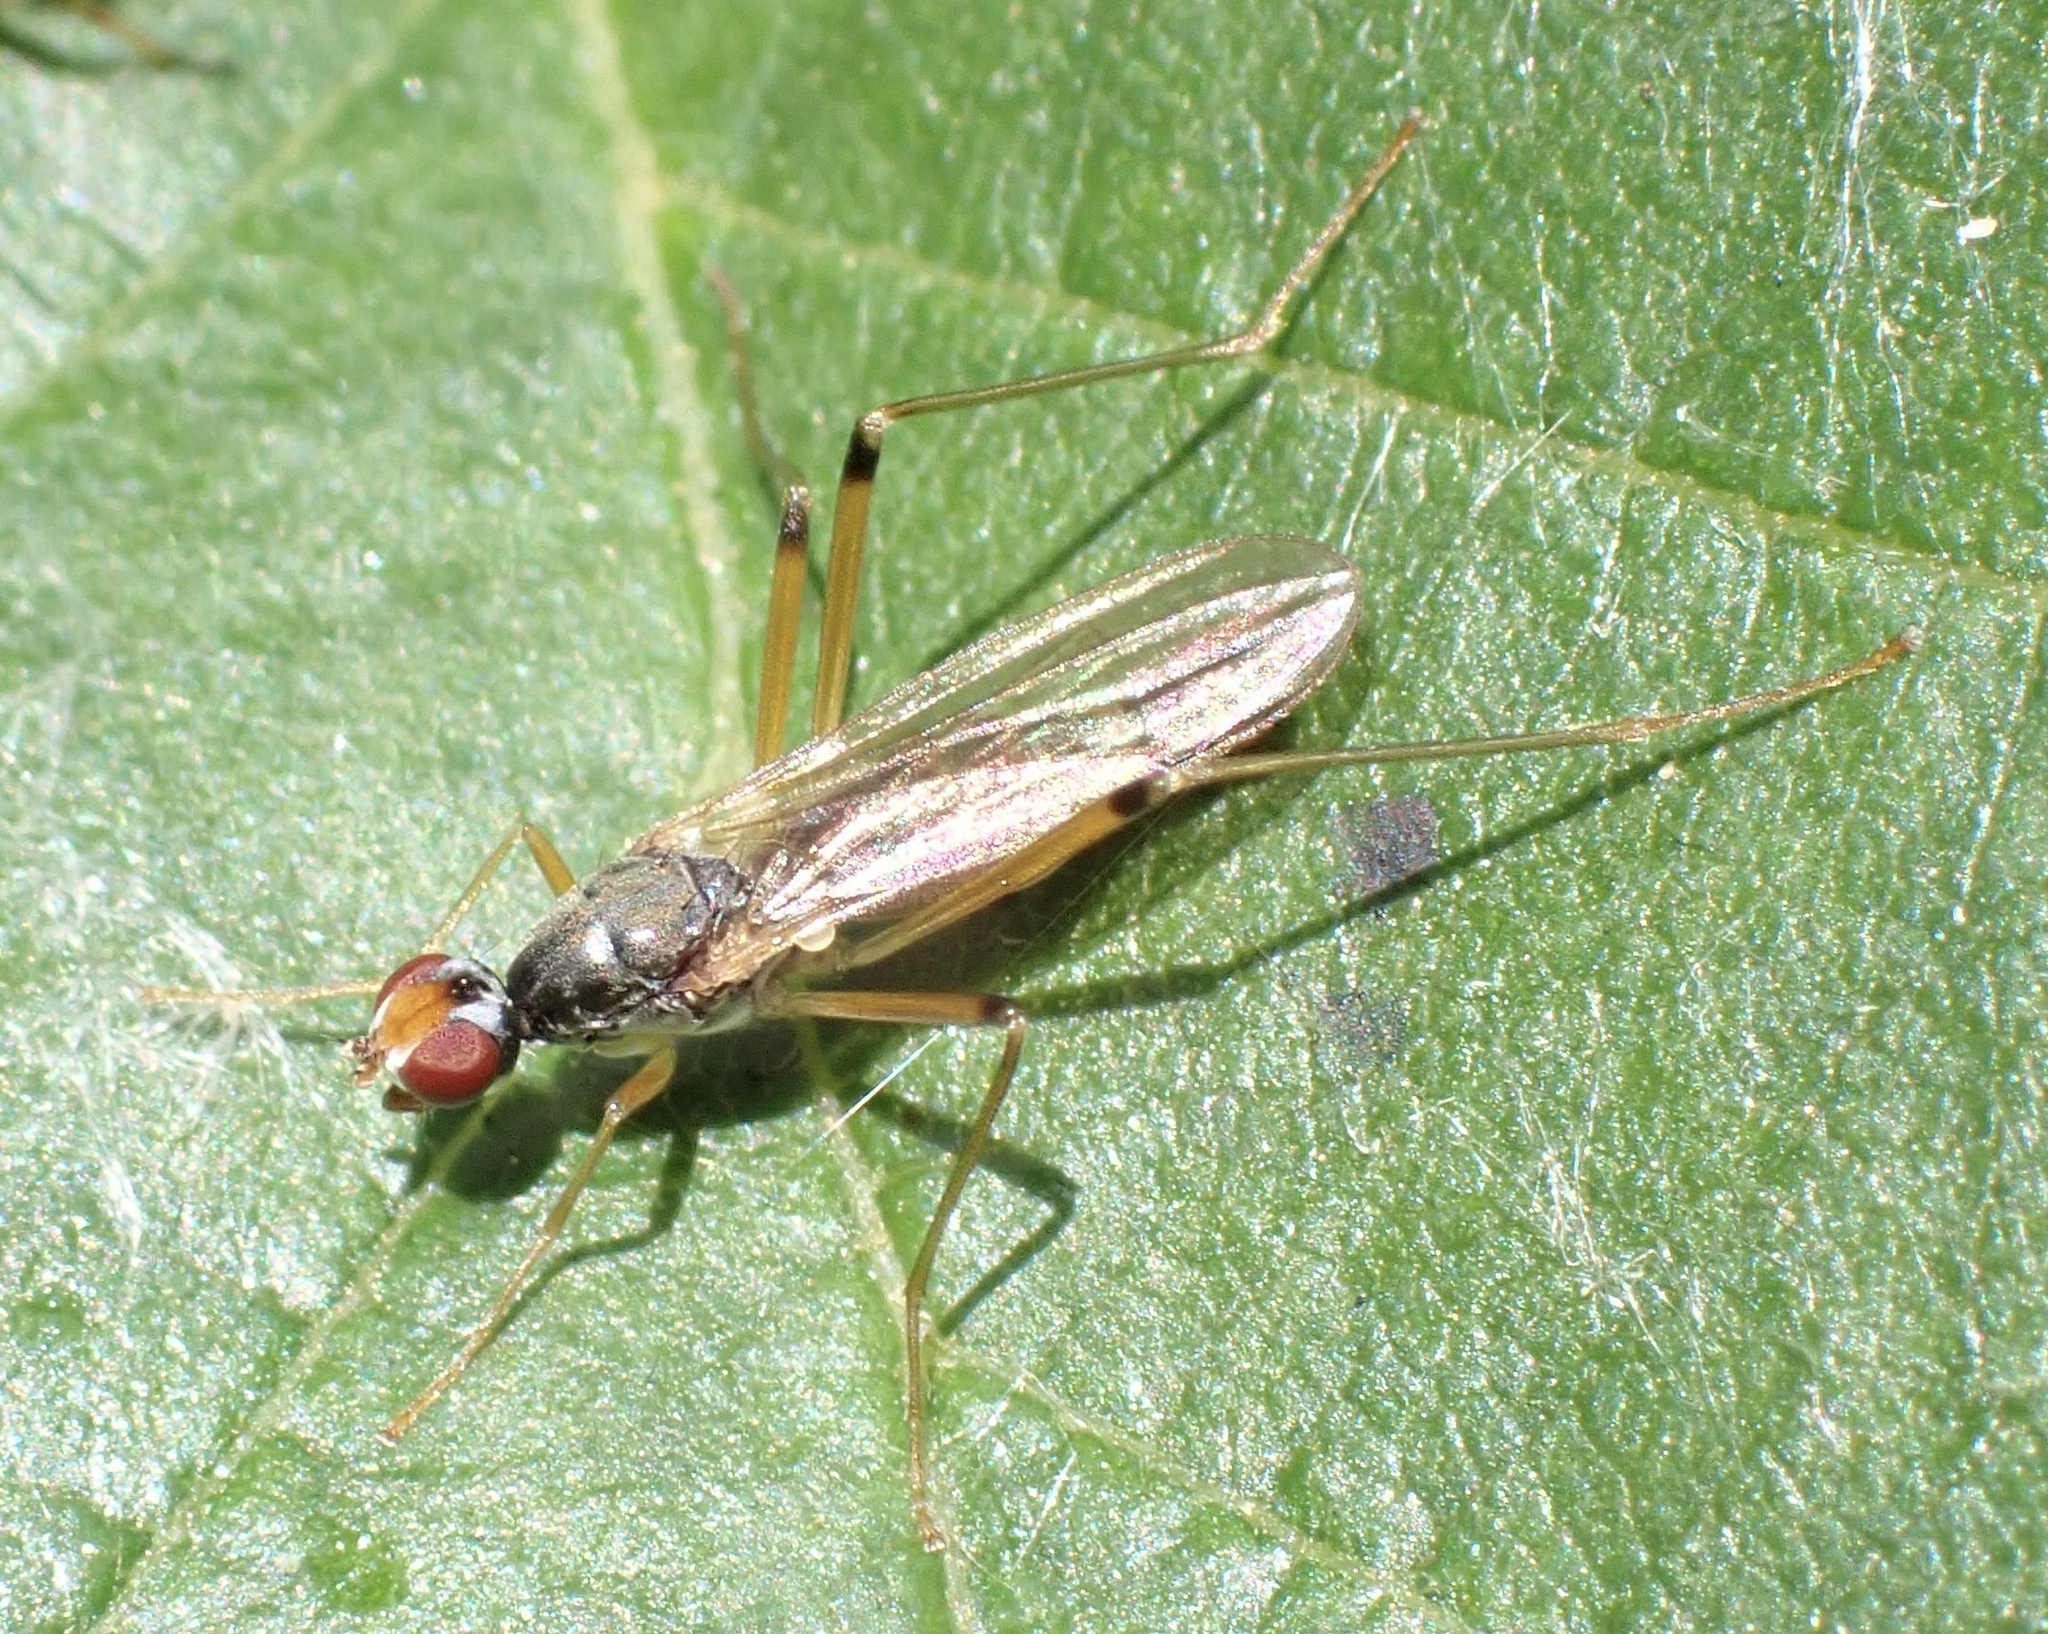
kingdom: Animalia
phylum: Arthropoda
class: Insecta
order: Diptera
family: Micropezidae
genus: Compsobata
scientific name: Compsobata cibaria
